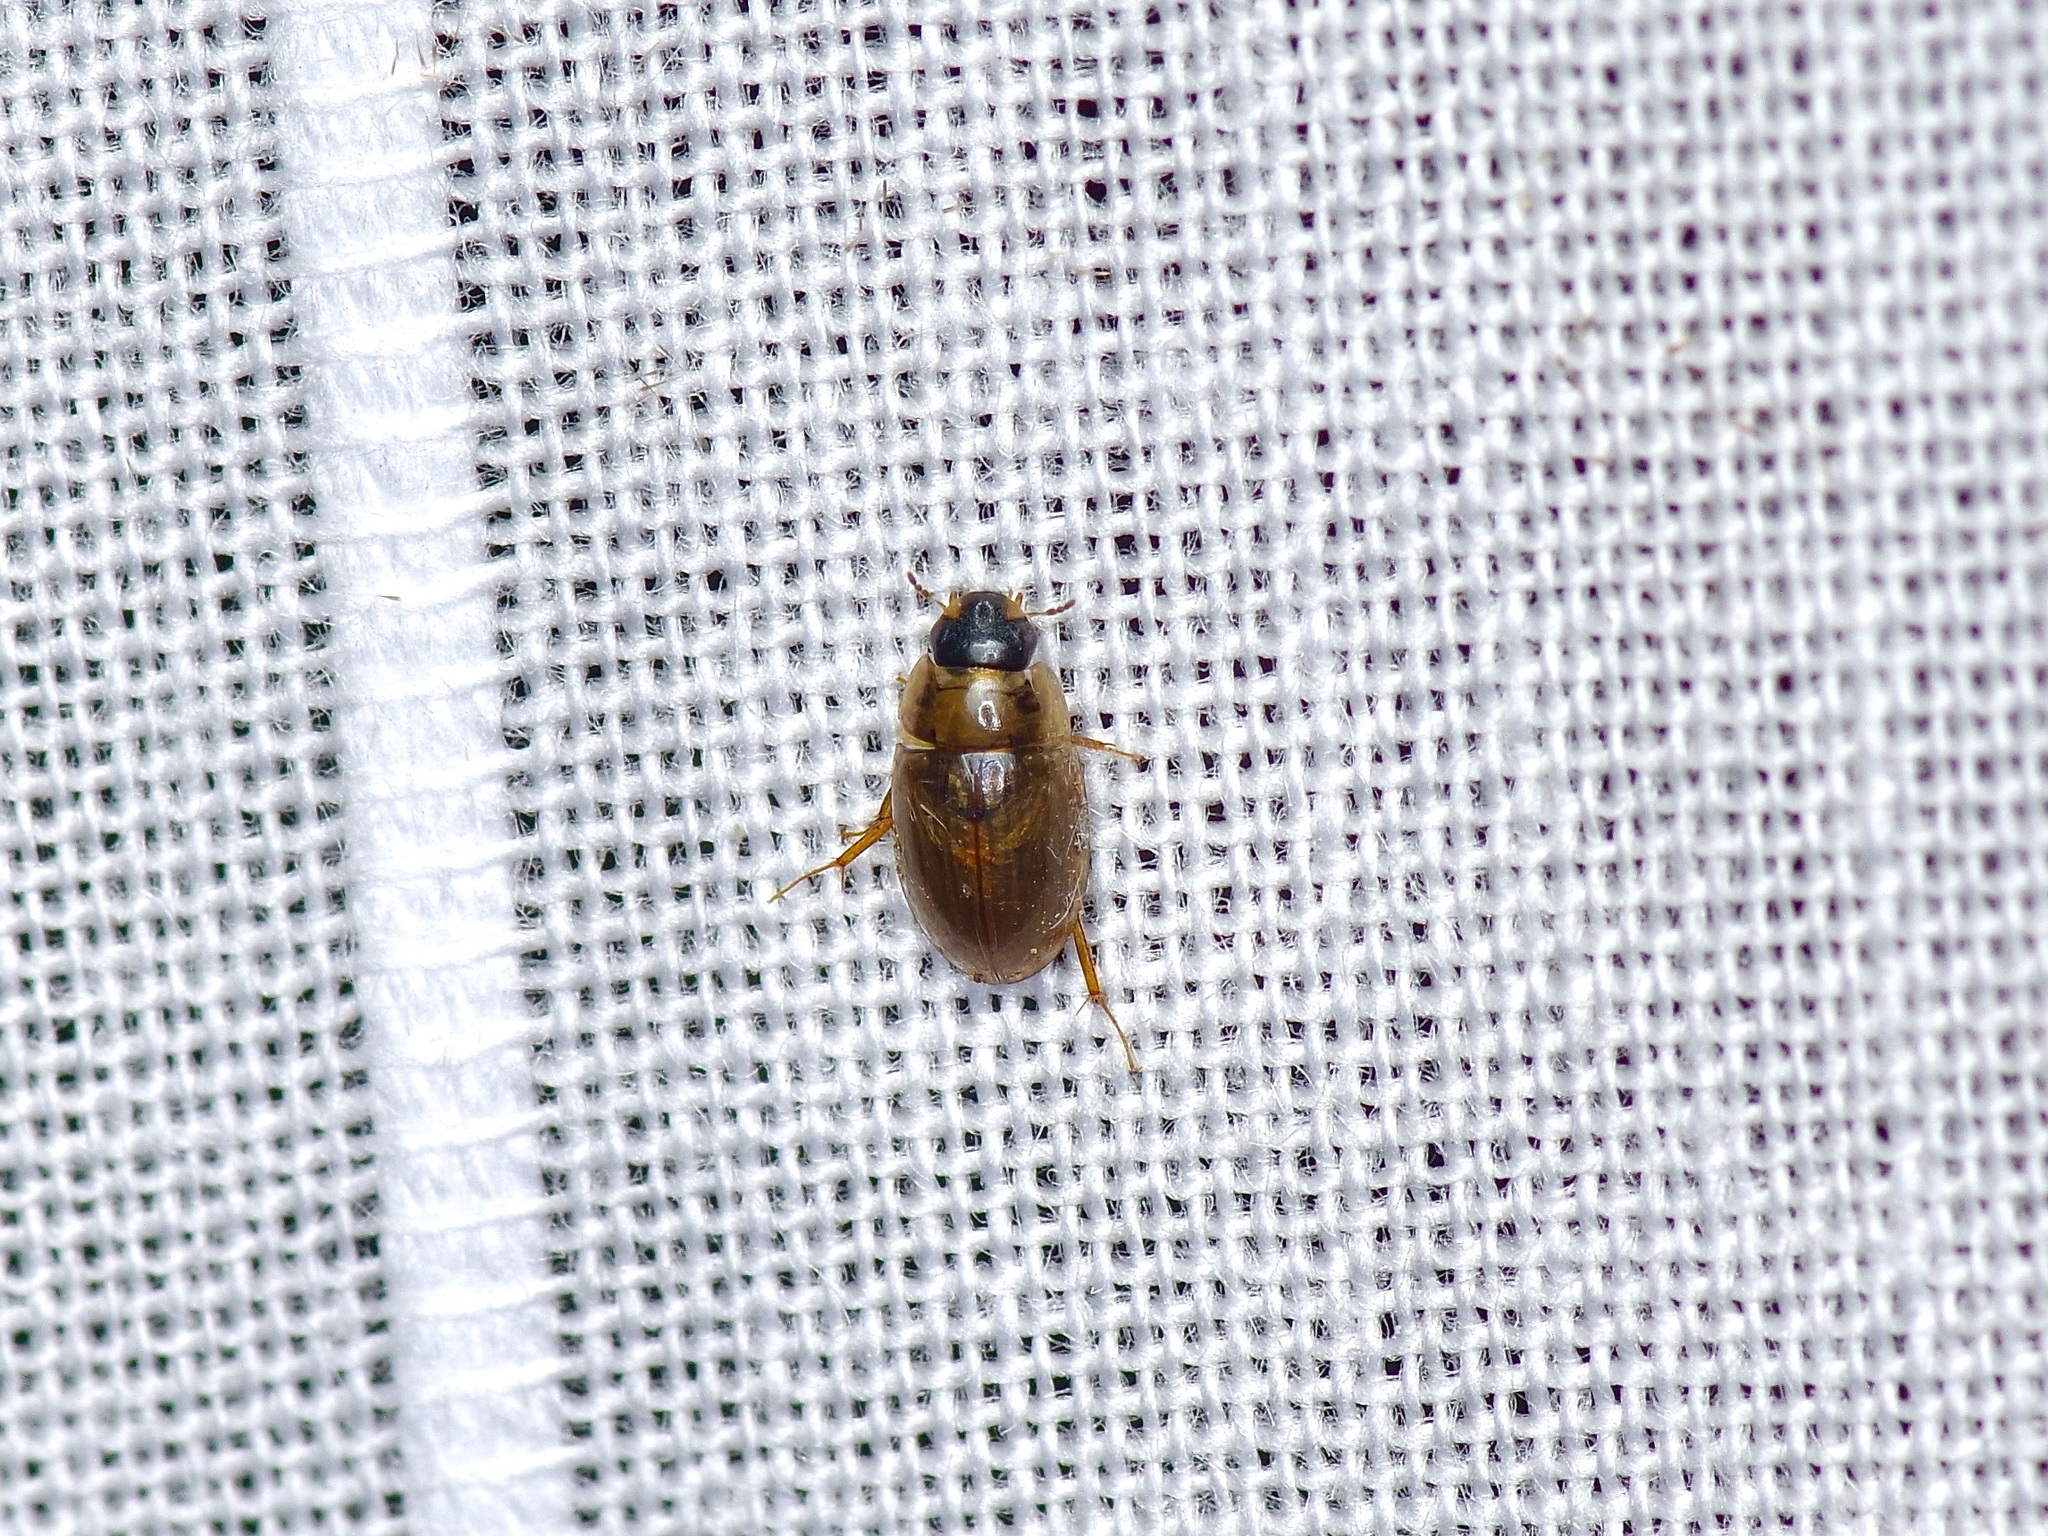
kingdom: Animalia
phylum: Arthropoda
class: Insecta
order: Coleoptera
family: Hydrophilidae
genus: Enochrus
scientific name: Enochrus
